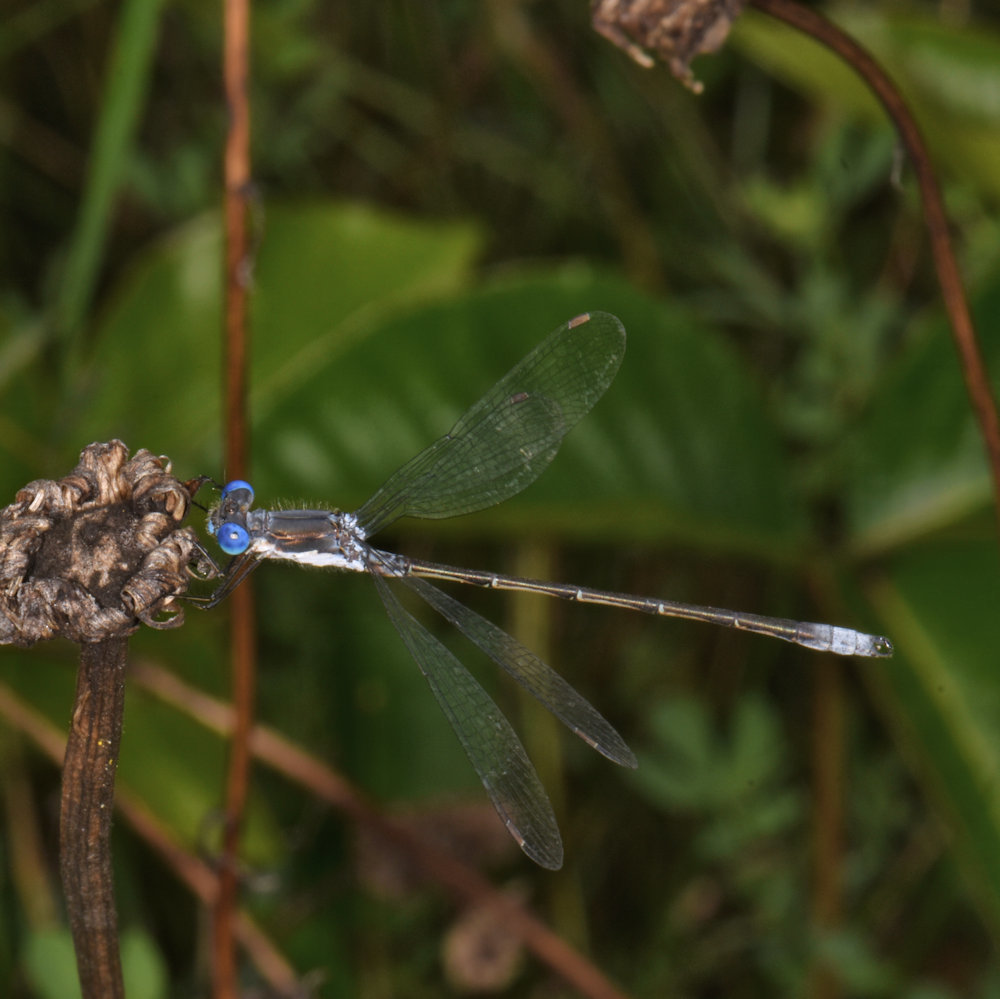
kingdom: Animalia
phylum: Arthropoda
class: Insecta
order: Odonata
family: Lestidae
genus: Lestes
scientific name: Lestes congener
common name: Spotted spreadwing
